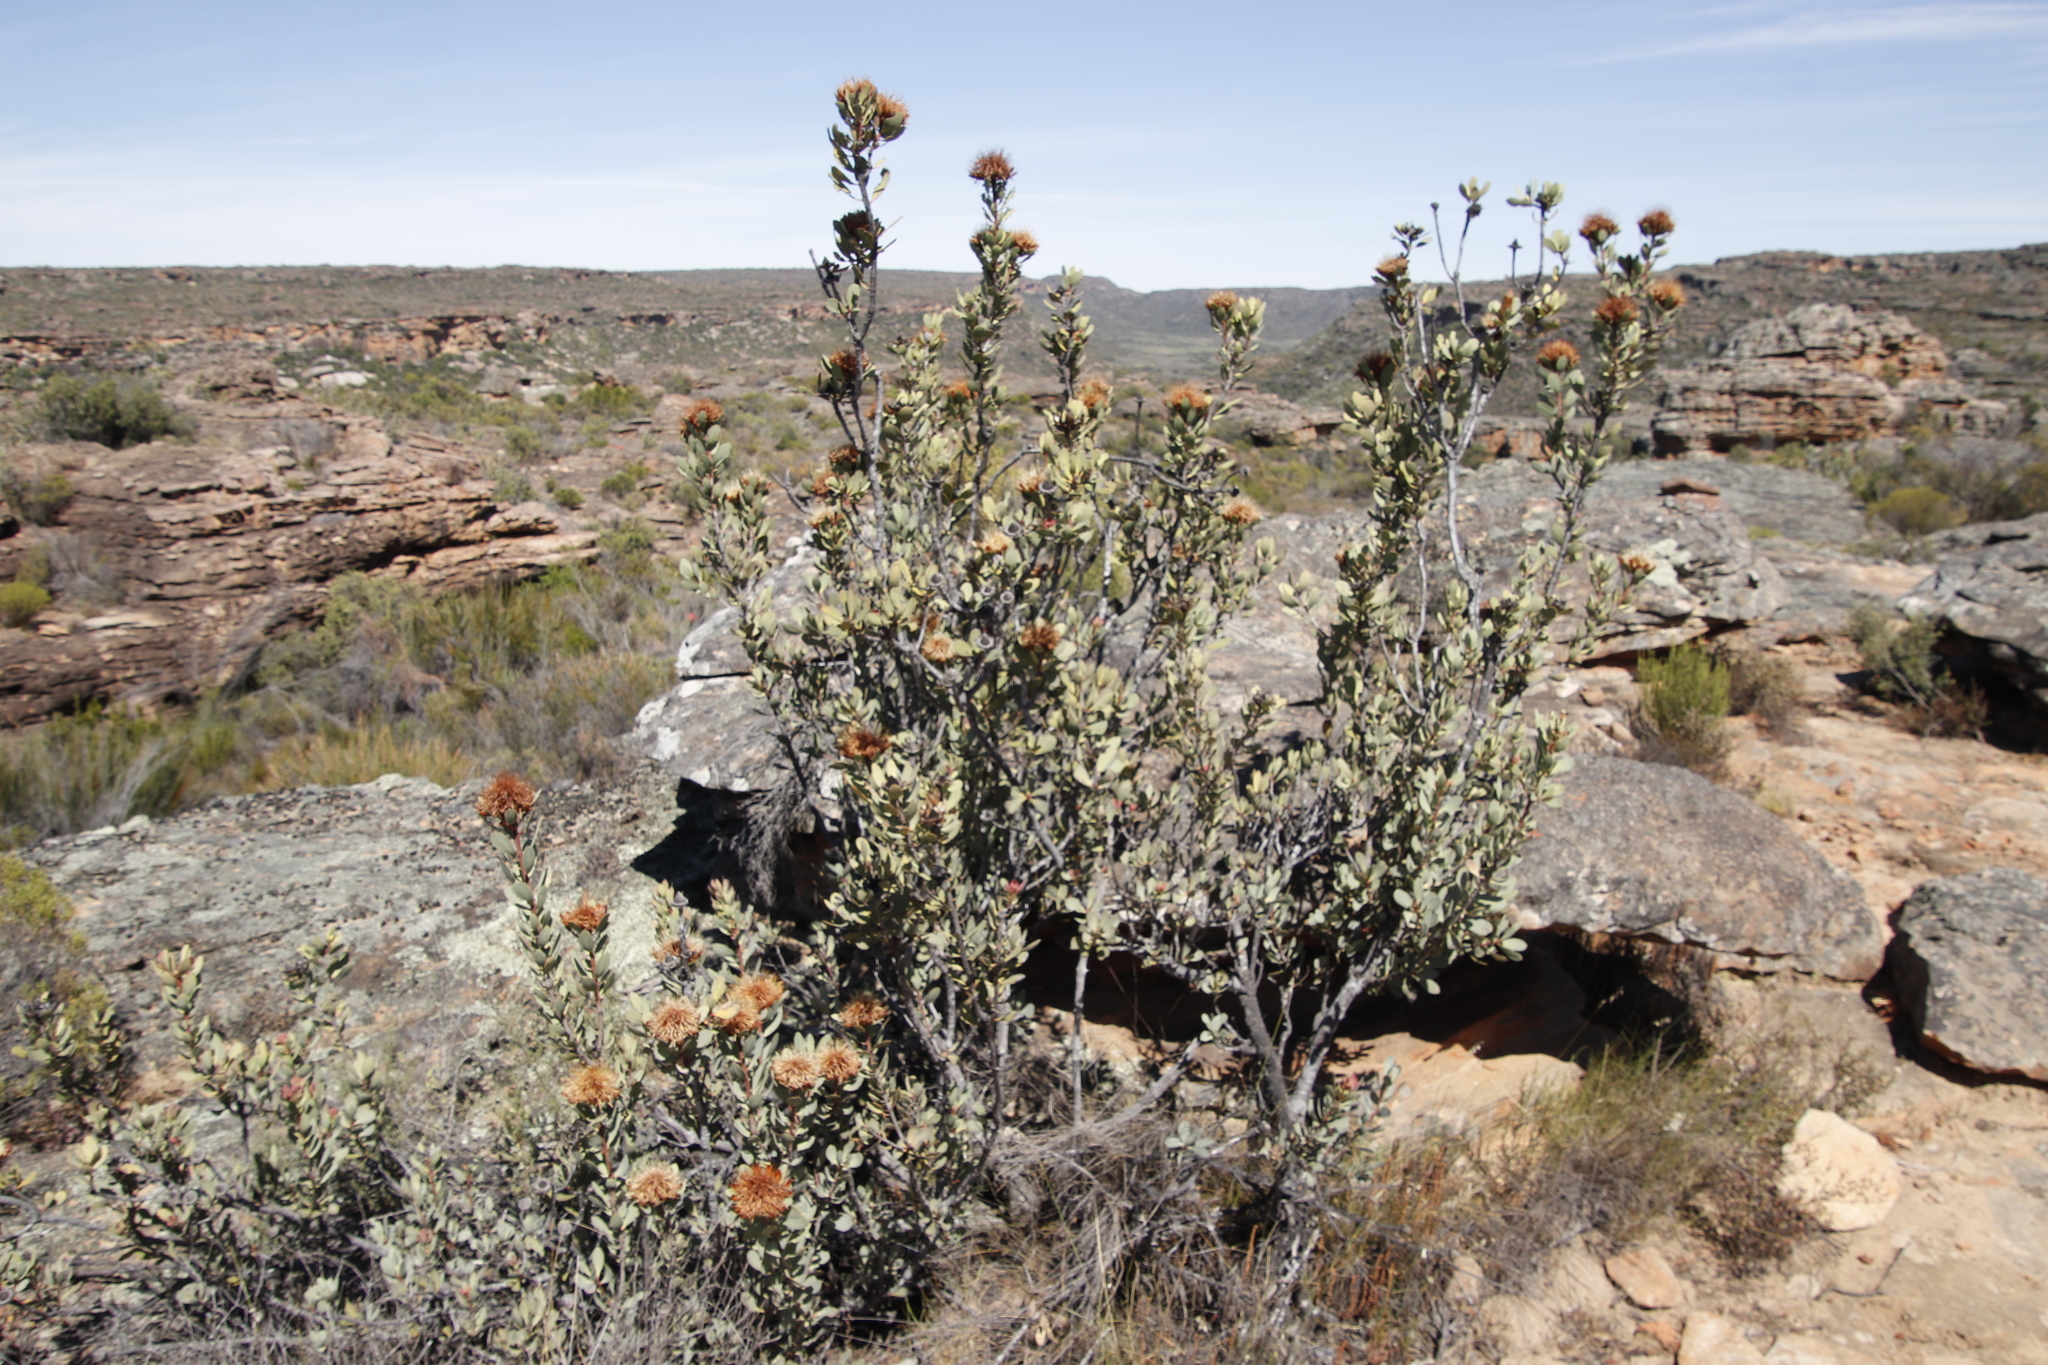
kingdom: Plantae
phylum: Tracheophyta
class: Magnoliopsida
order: Proteales
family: Proteaceae
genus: Protea
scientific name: Protea glabra
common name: Chestnut sugarbush
